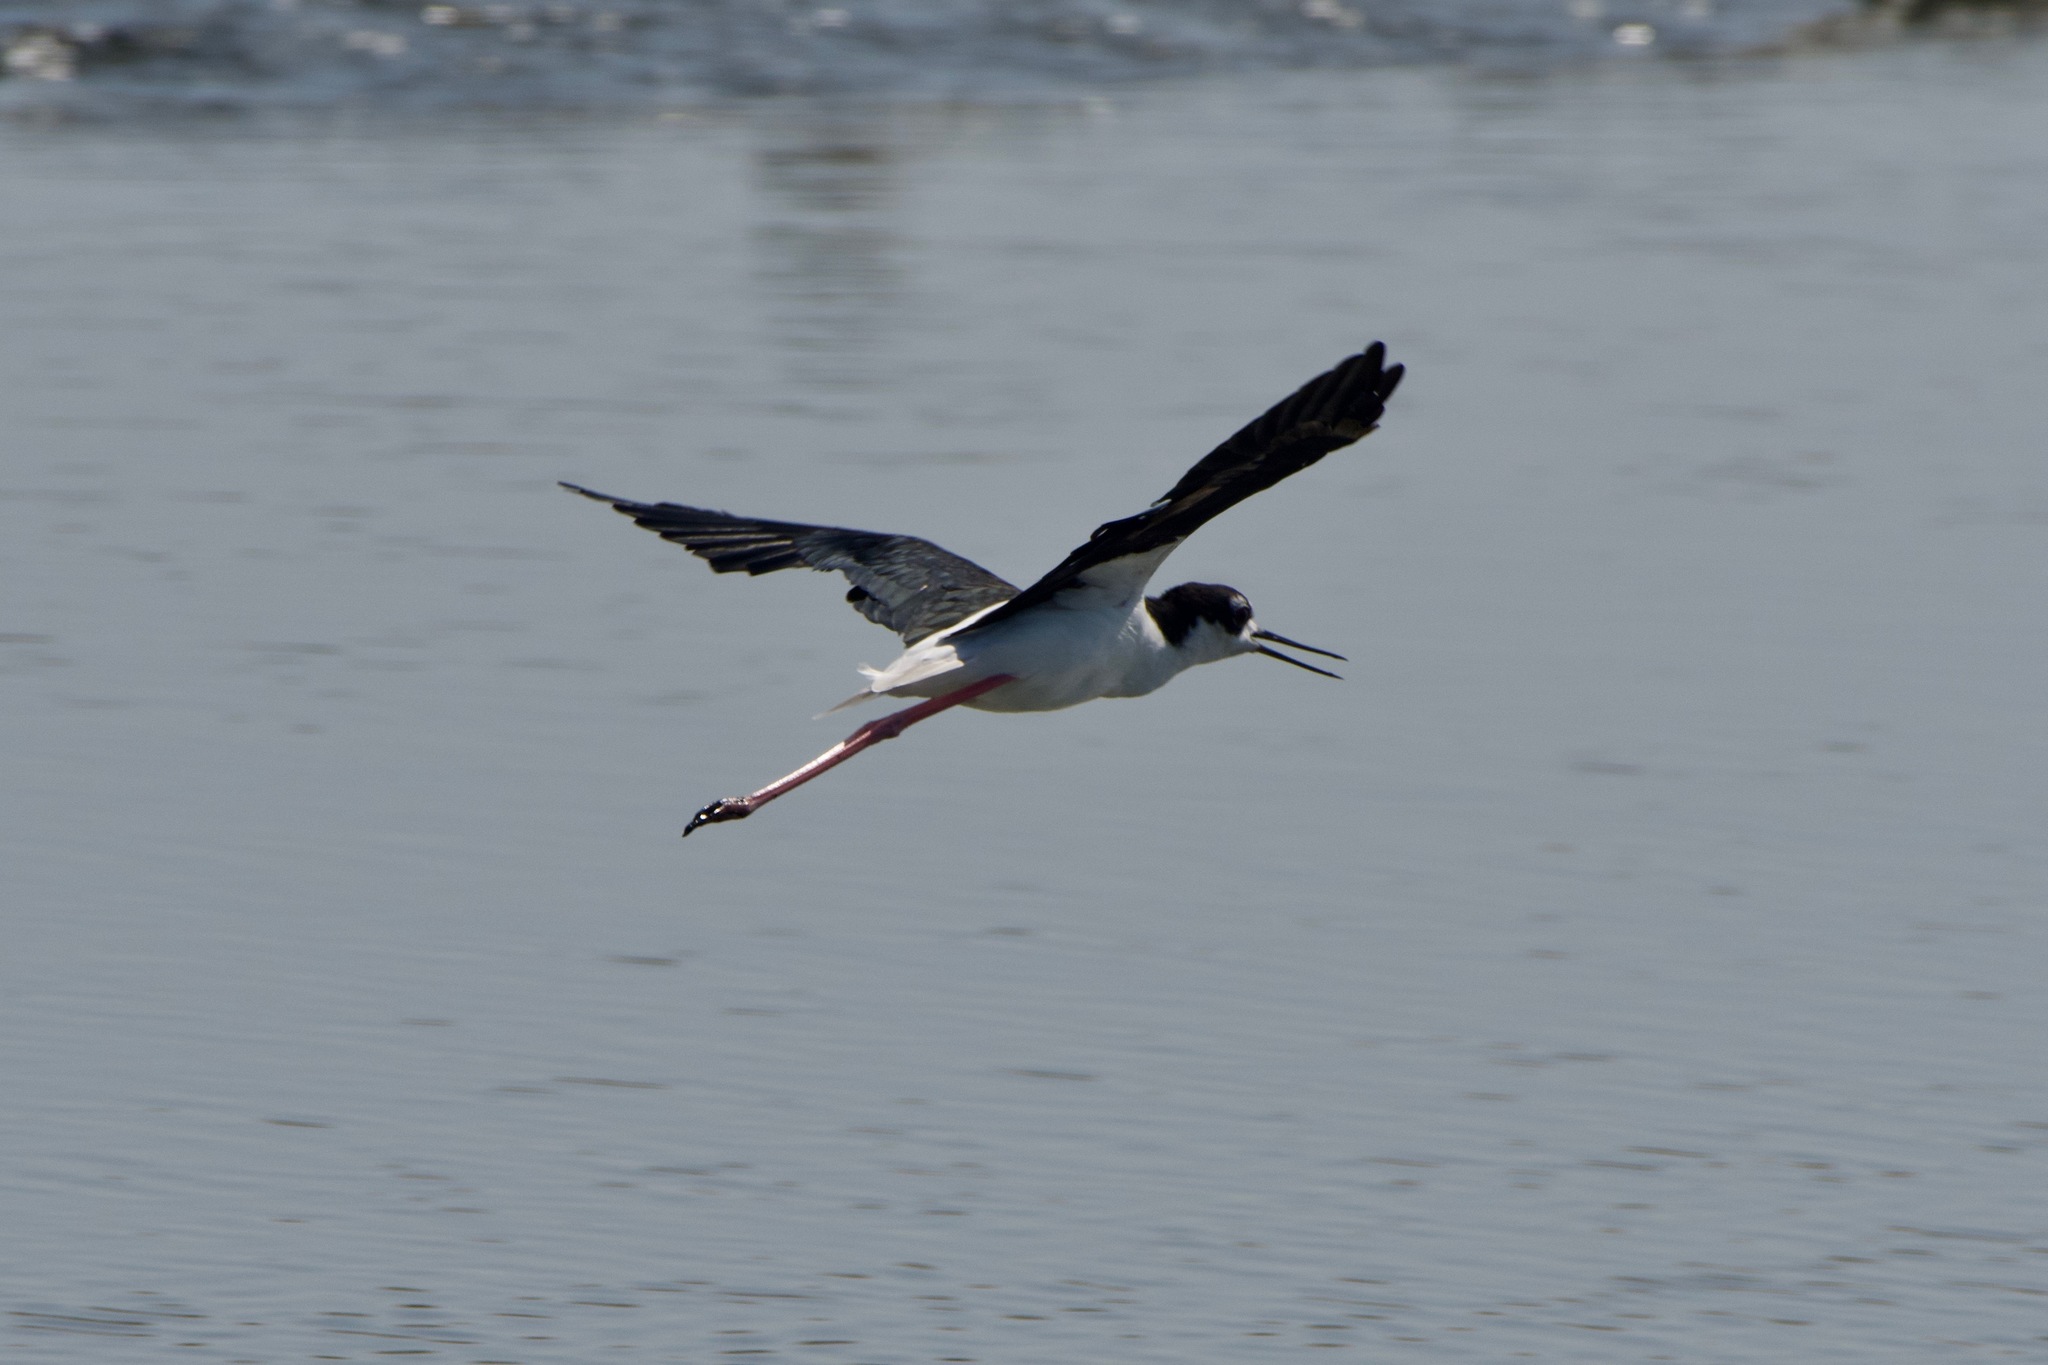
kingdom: Animalia
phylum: Chordata
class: Aves
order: Charadriiformes
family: Recurvirostridae
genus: Himantopus
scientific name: Himantopus mexicanus
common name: Black-necked stilt
